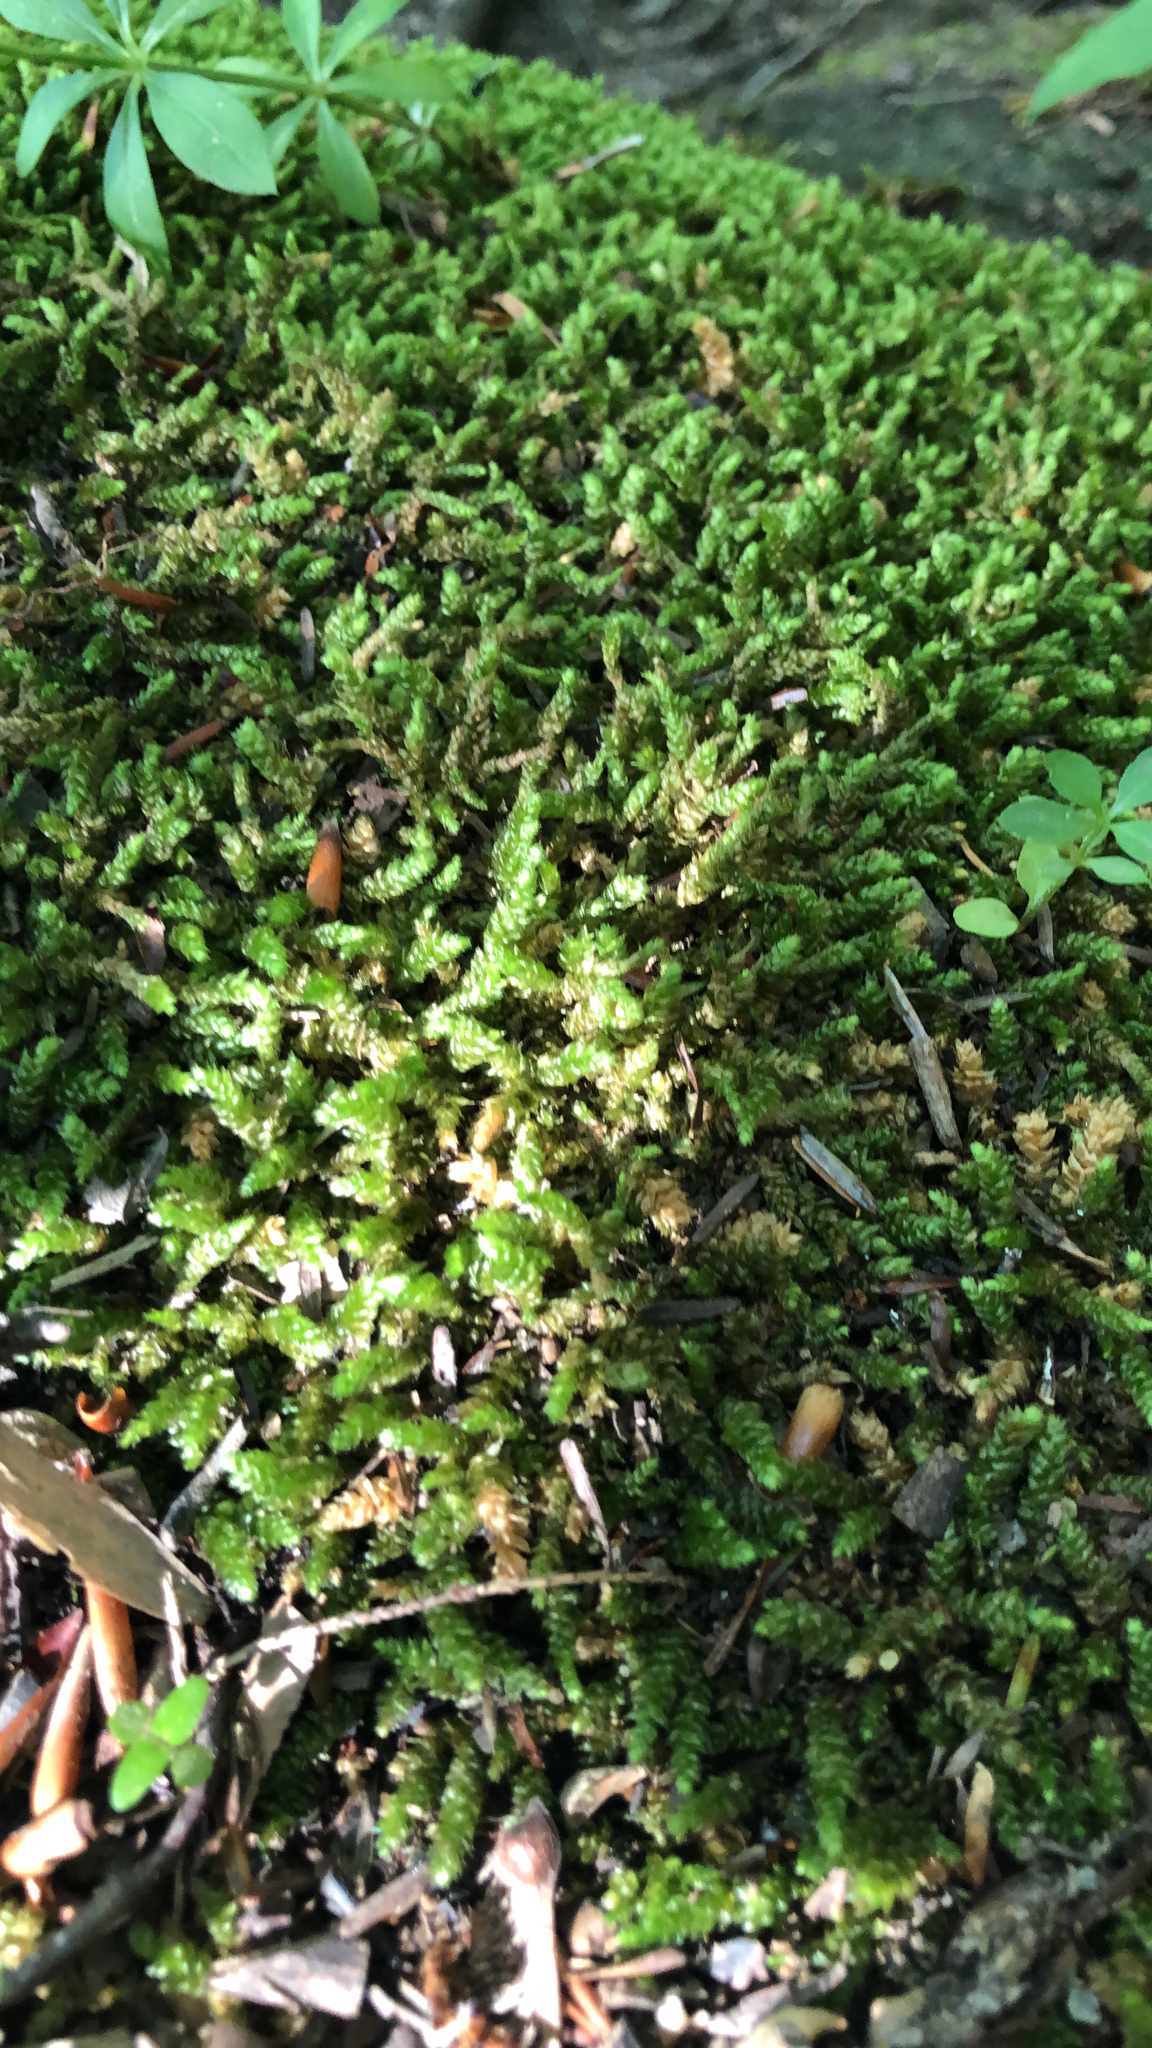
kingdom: Plantae
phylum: Bryophyta
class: Bryopsida
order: Hypnales
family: Brachytheciaceae
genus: Bryoandersonia
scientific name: Bryoandersonia illecebra
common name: Spoon-leaved moss
